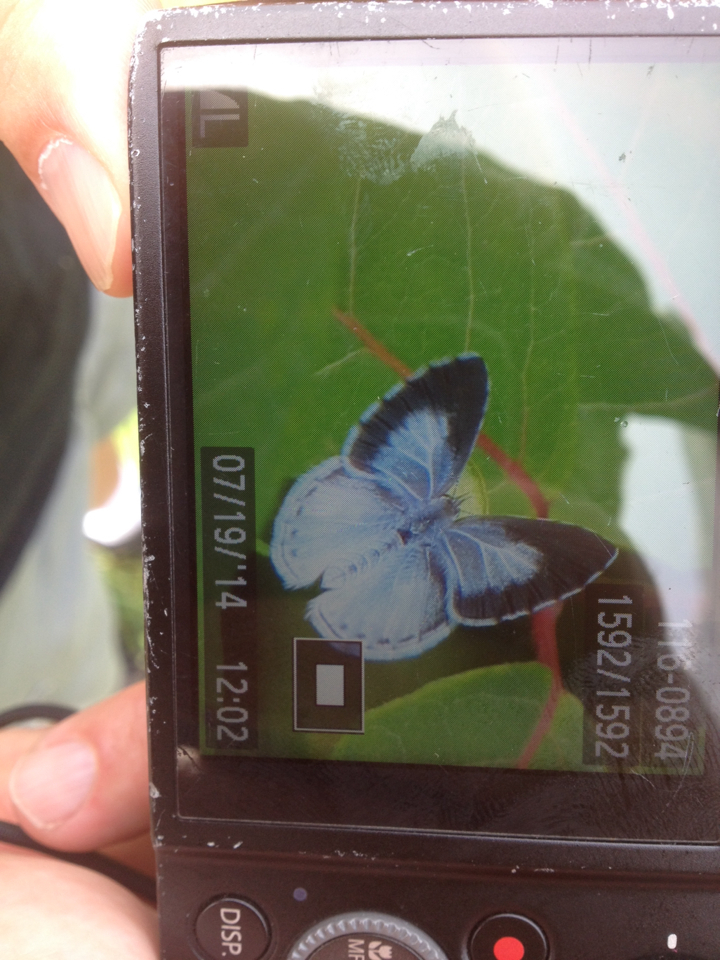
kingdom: Animalia
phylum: Arthropoda
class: Insecta
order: Lepidoptera
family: Lycaenidae
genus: Cyaniris
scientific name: Cyaniris neglecta
